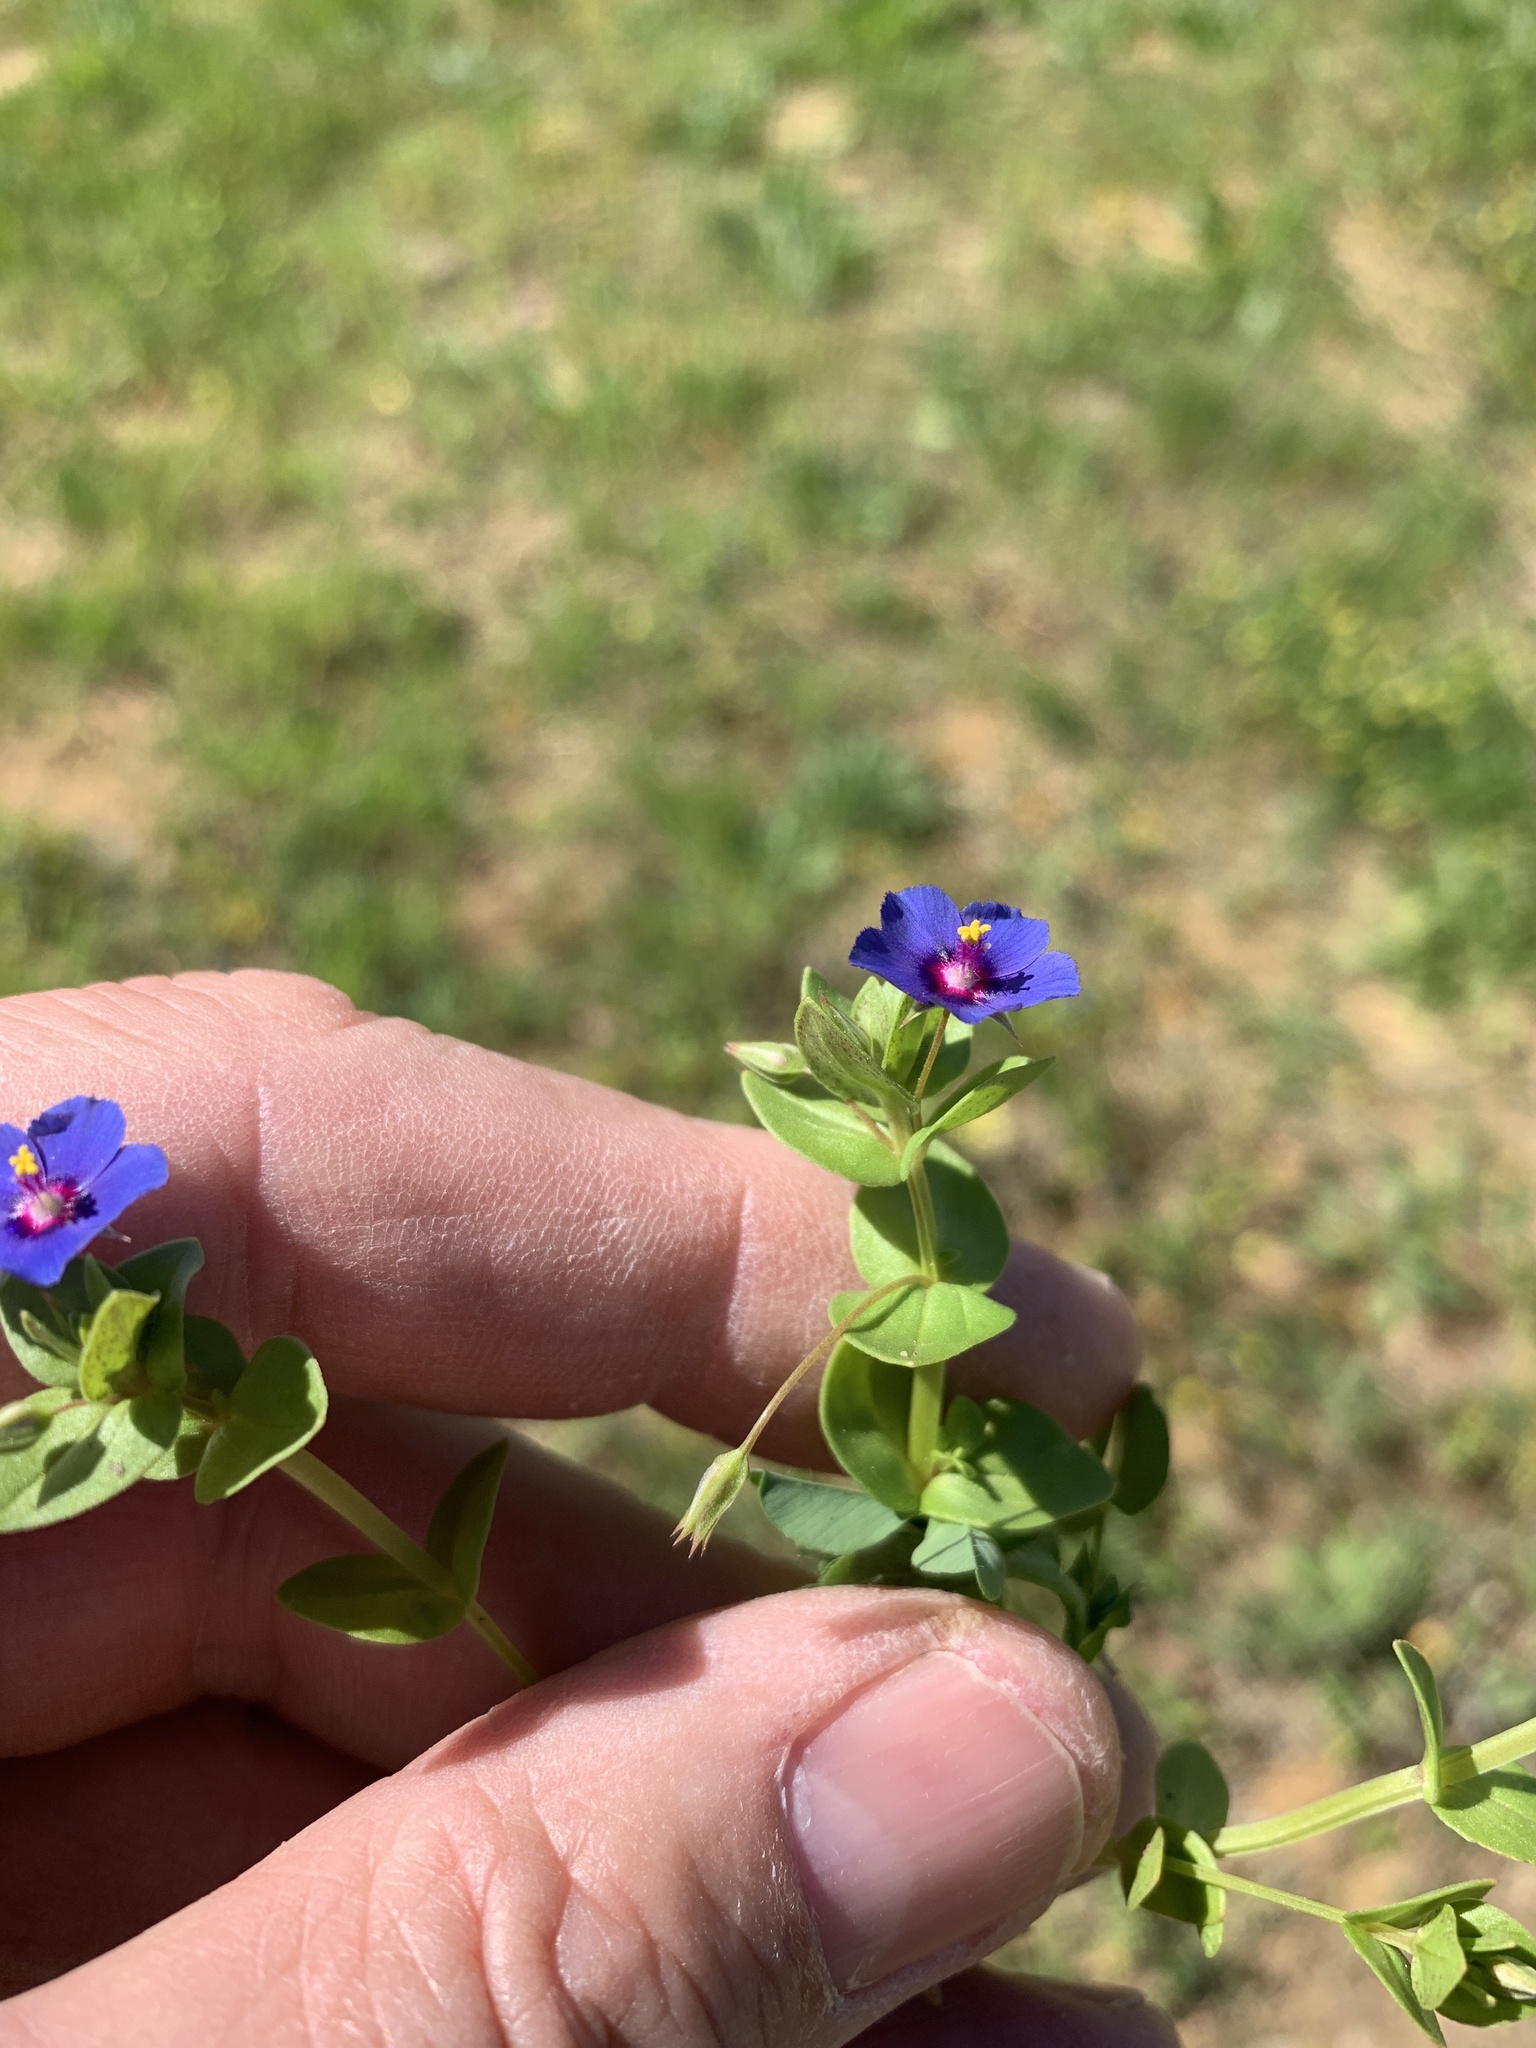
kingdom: Plantae
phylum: Tracheophyta
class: Magnoliopsida
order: Ericales
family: Primulaceae
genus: Lysimachia
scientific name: Lysimachia loeflingii
